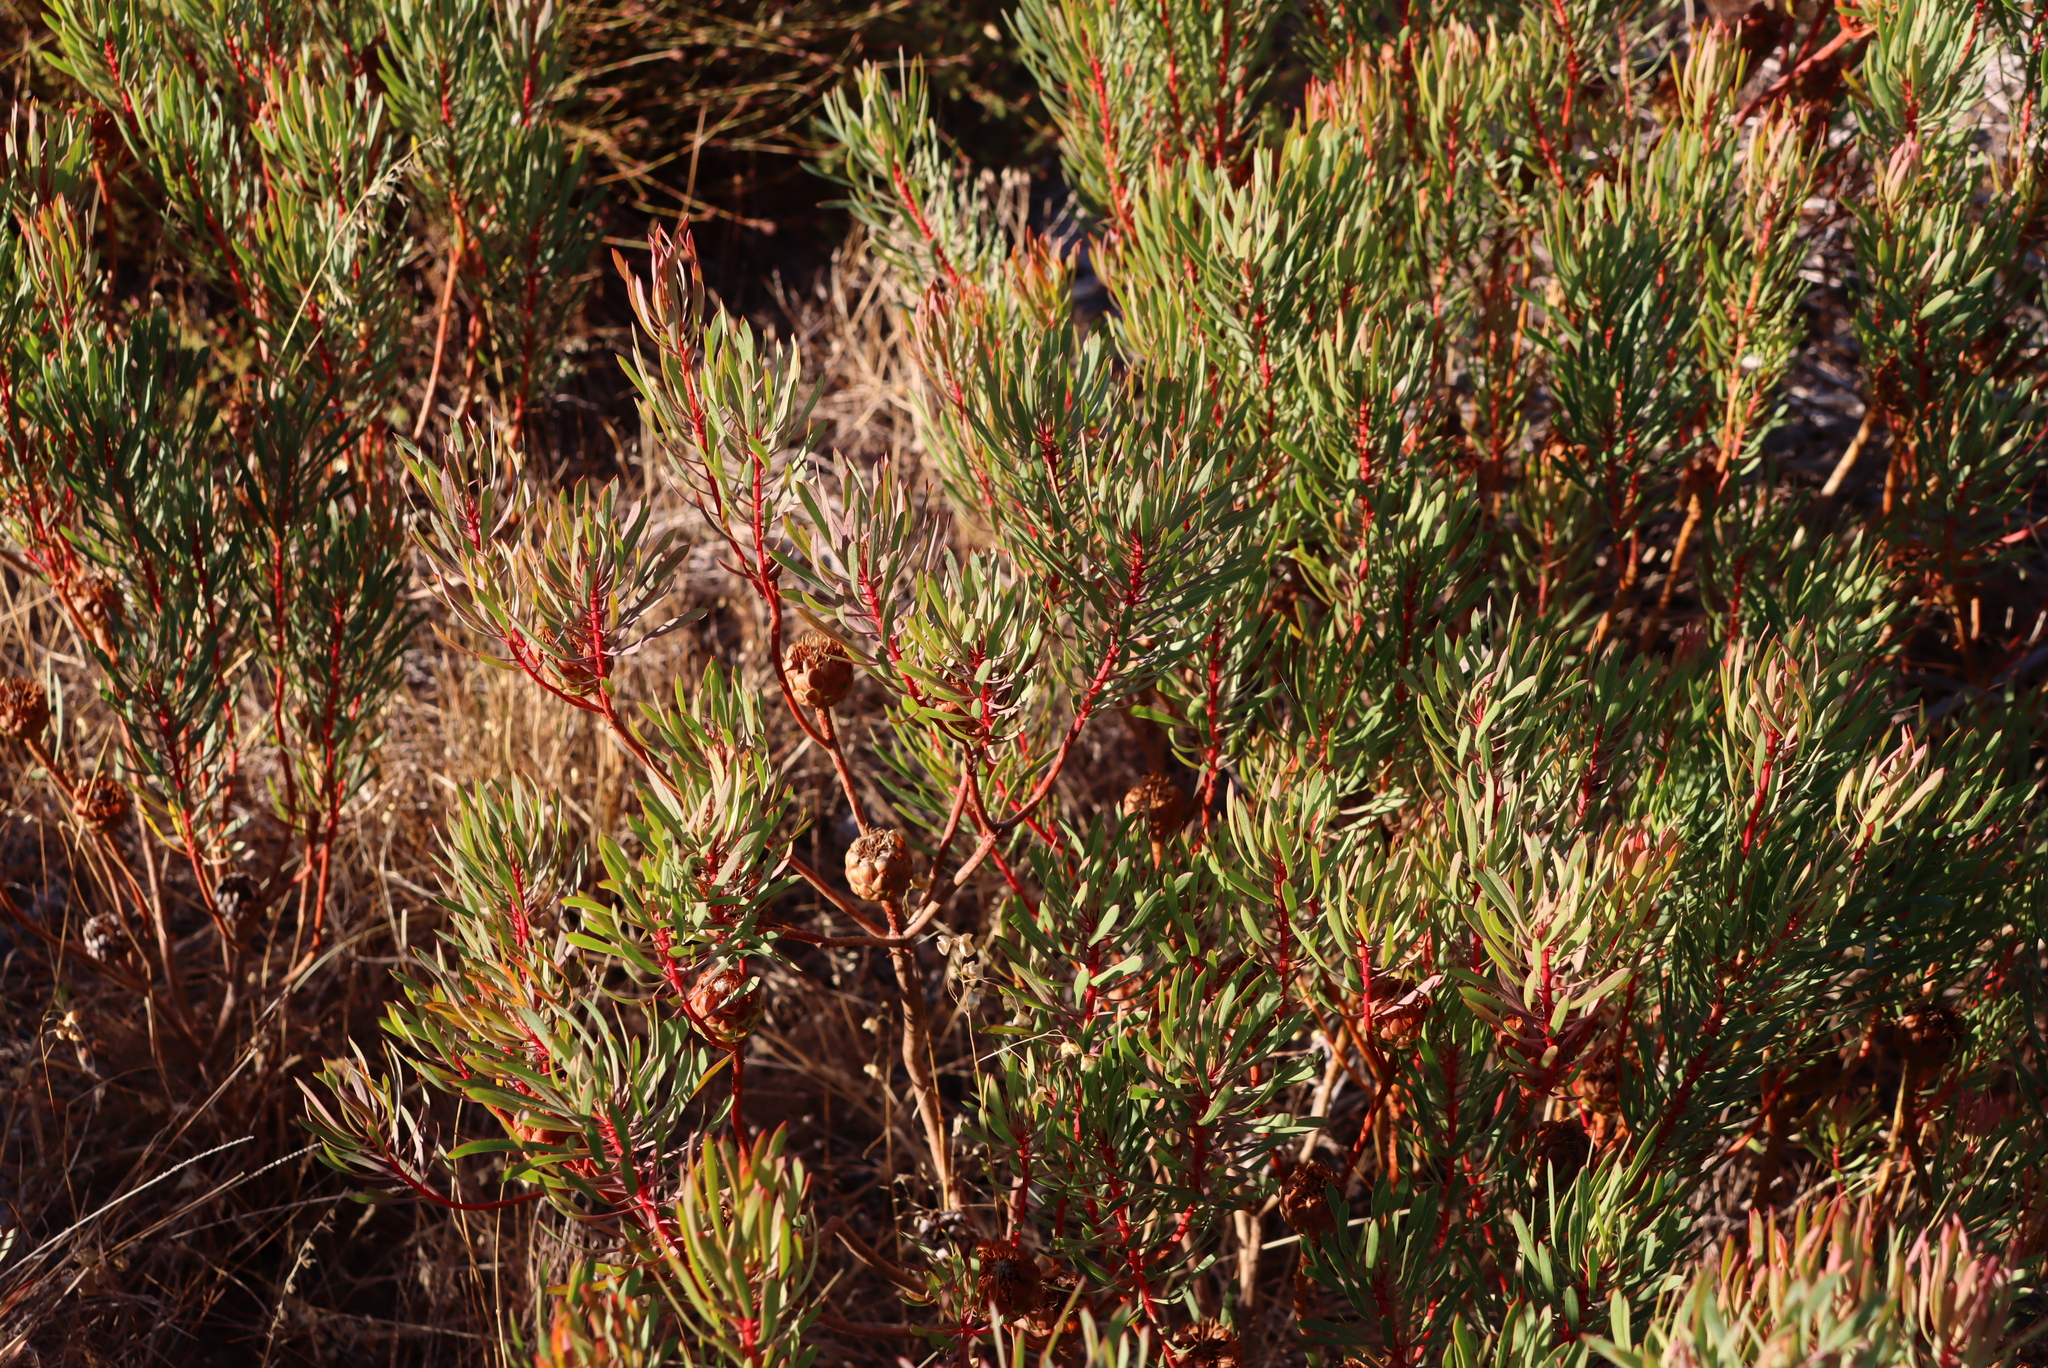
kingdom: Plantae
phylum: Tracheophyta
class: Magnoliopsida
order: Proteales
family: Proteaceae
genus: Protea
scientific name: Protea scolymocephala
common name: Thistle sugarbush
